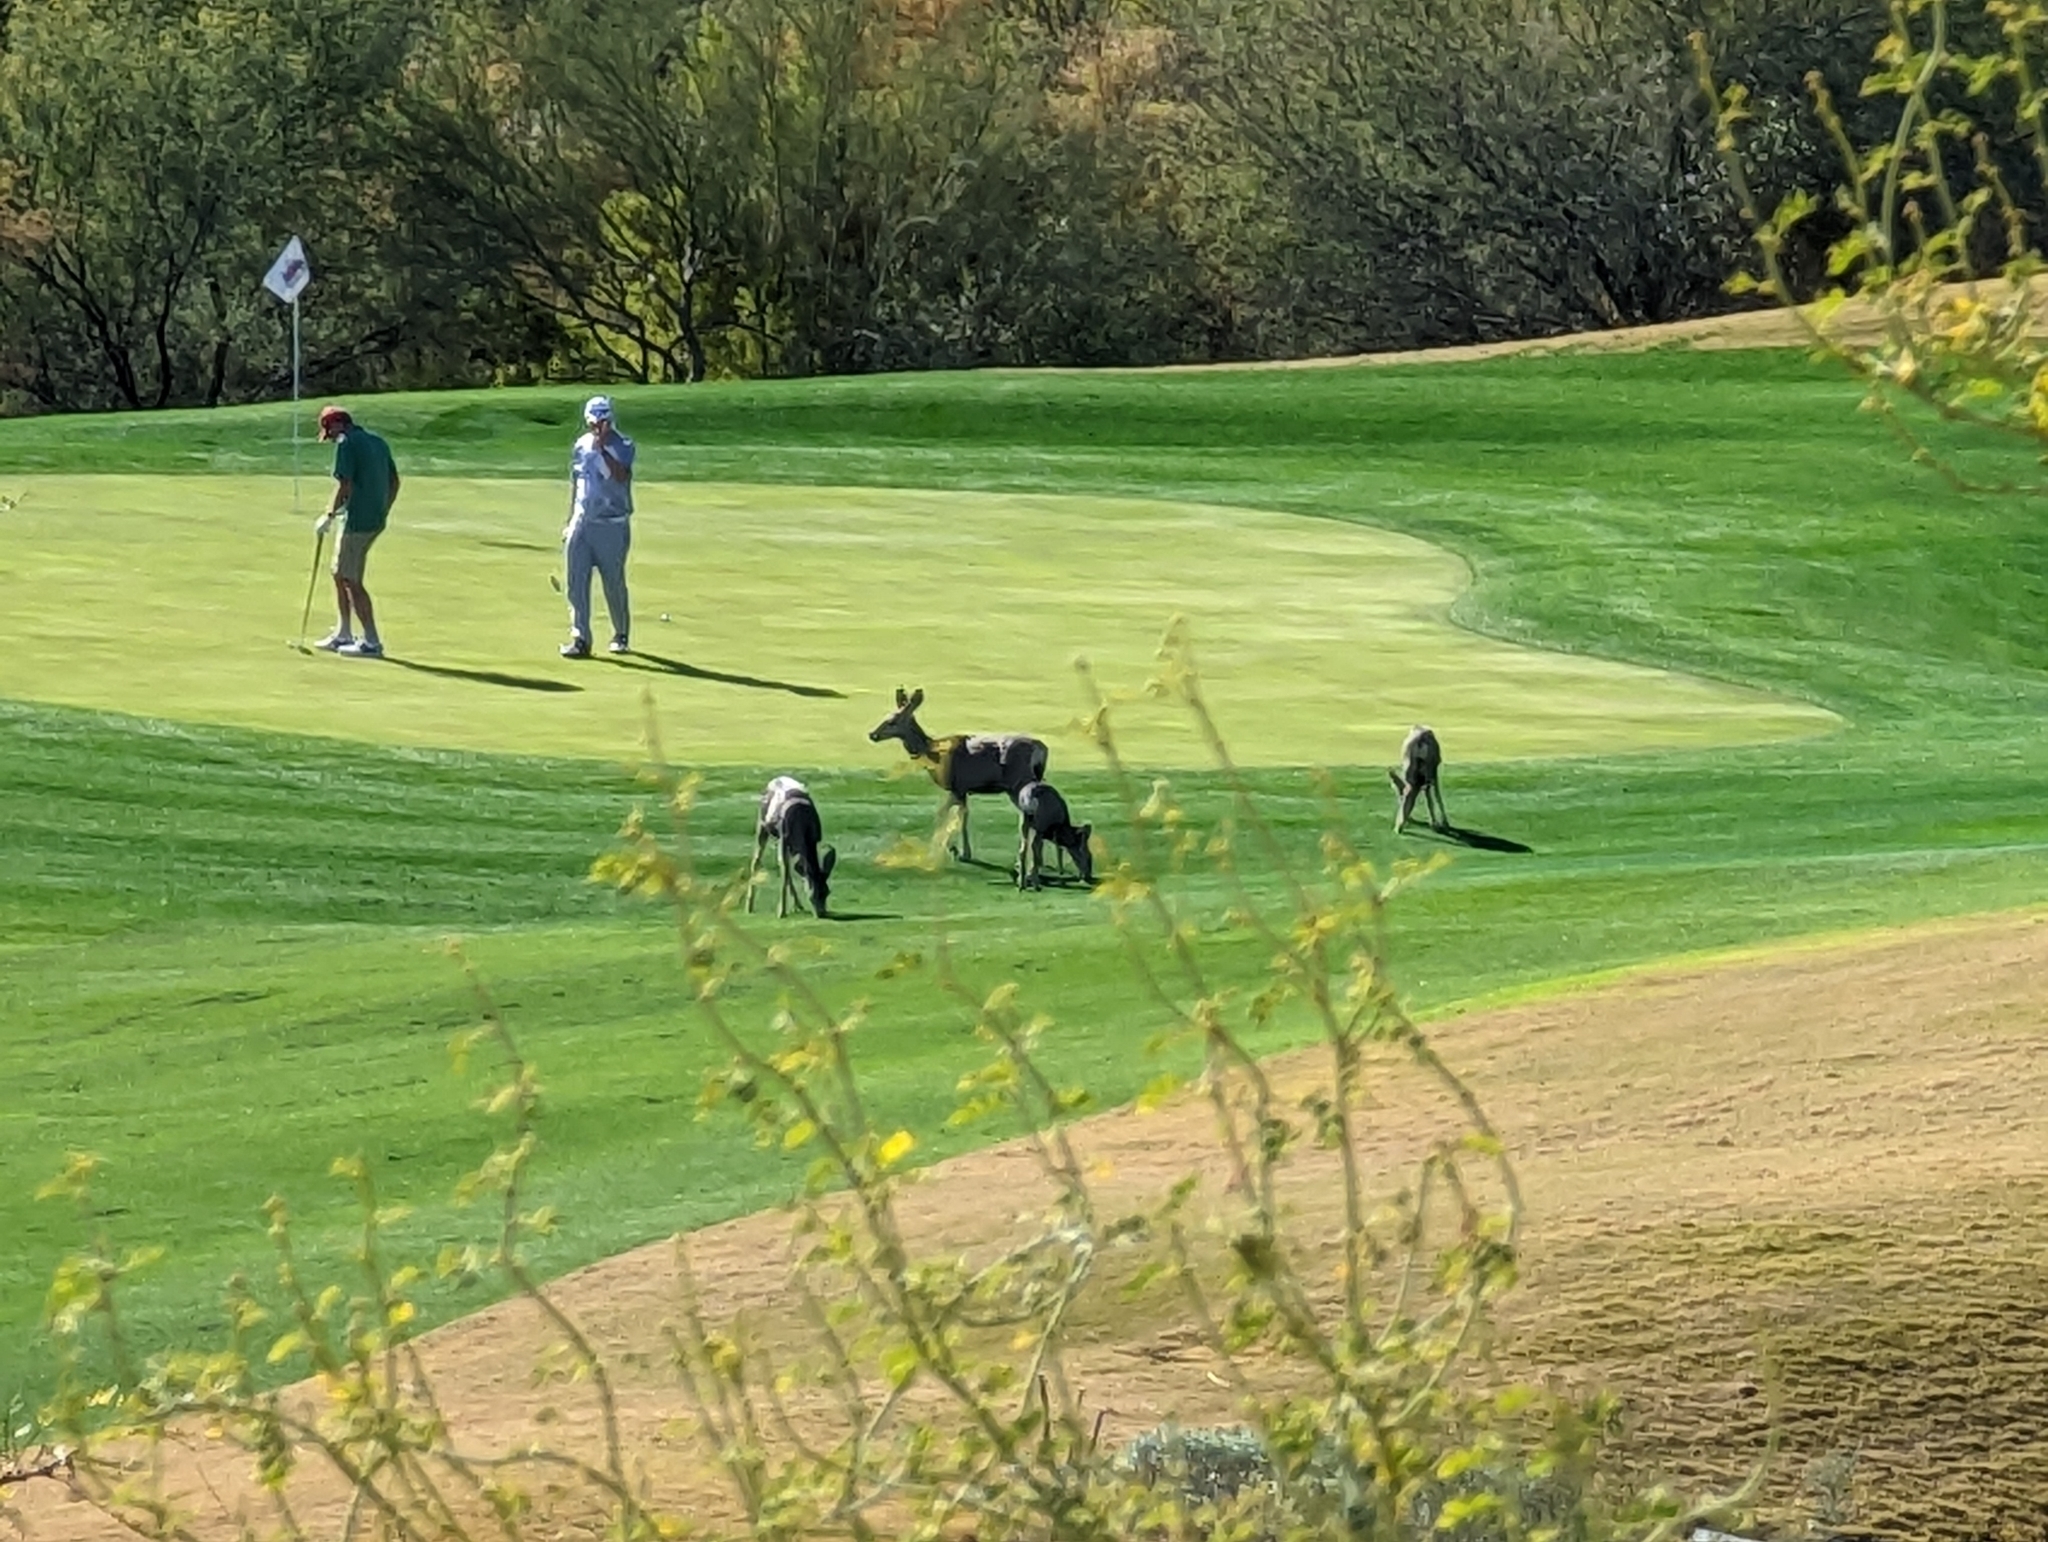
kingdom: Animalia
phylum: Chordata
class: Mammalia
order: Artiodactyla
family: Cervidae
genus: Odocoileus
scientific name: Odocoileus hemionus
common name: Mule deer
